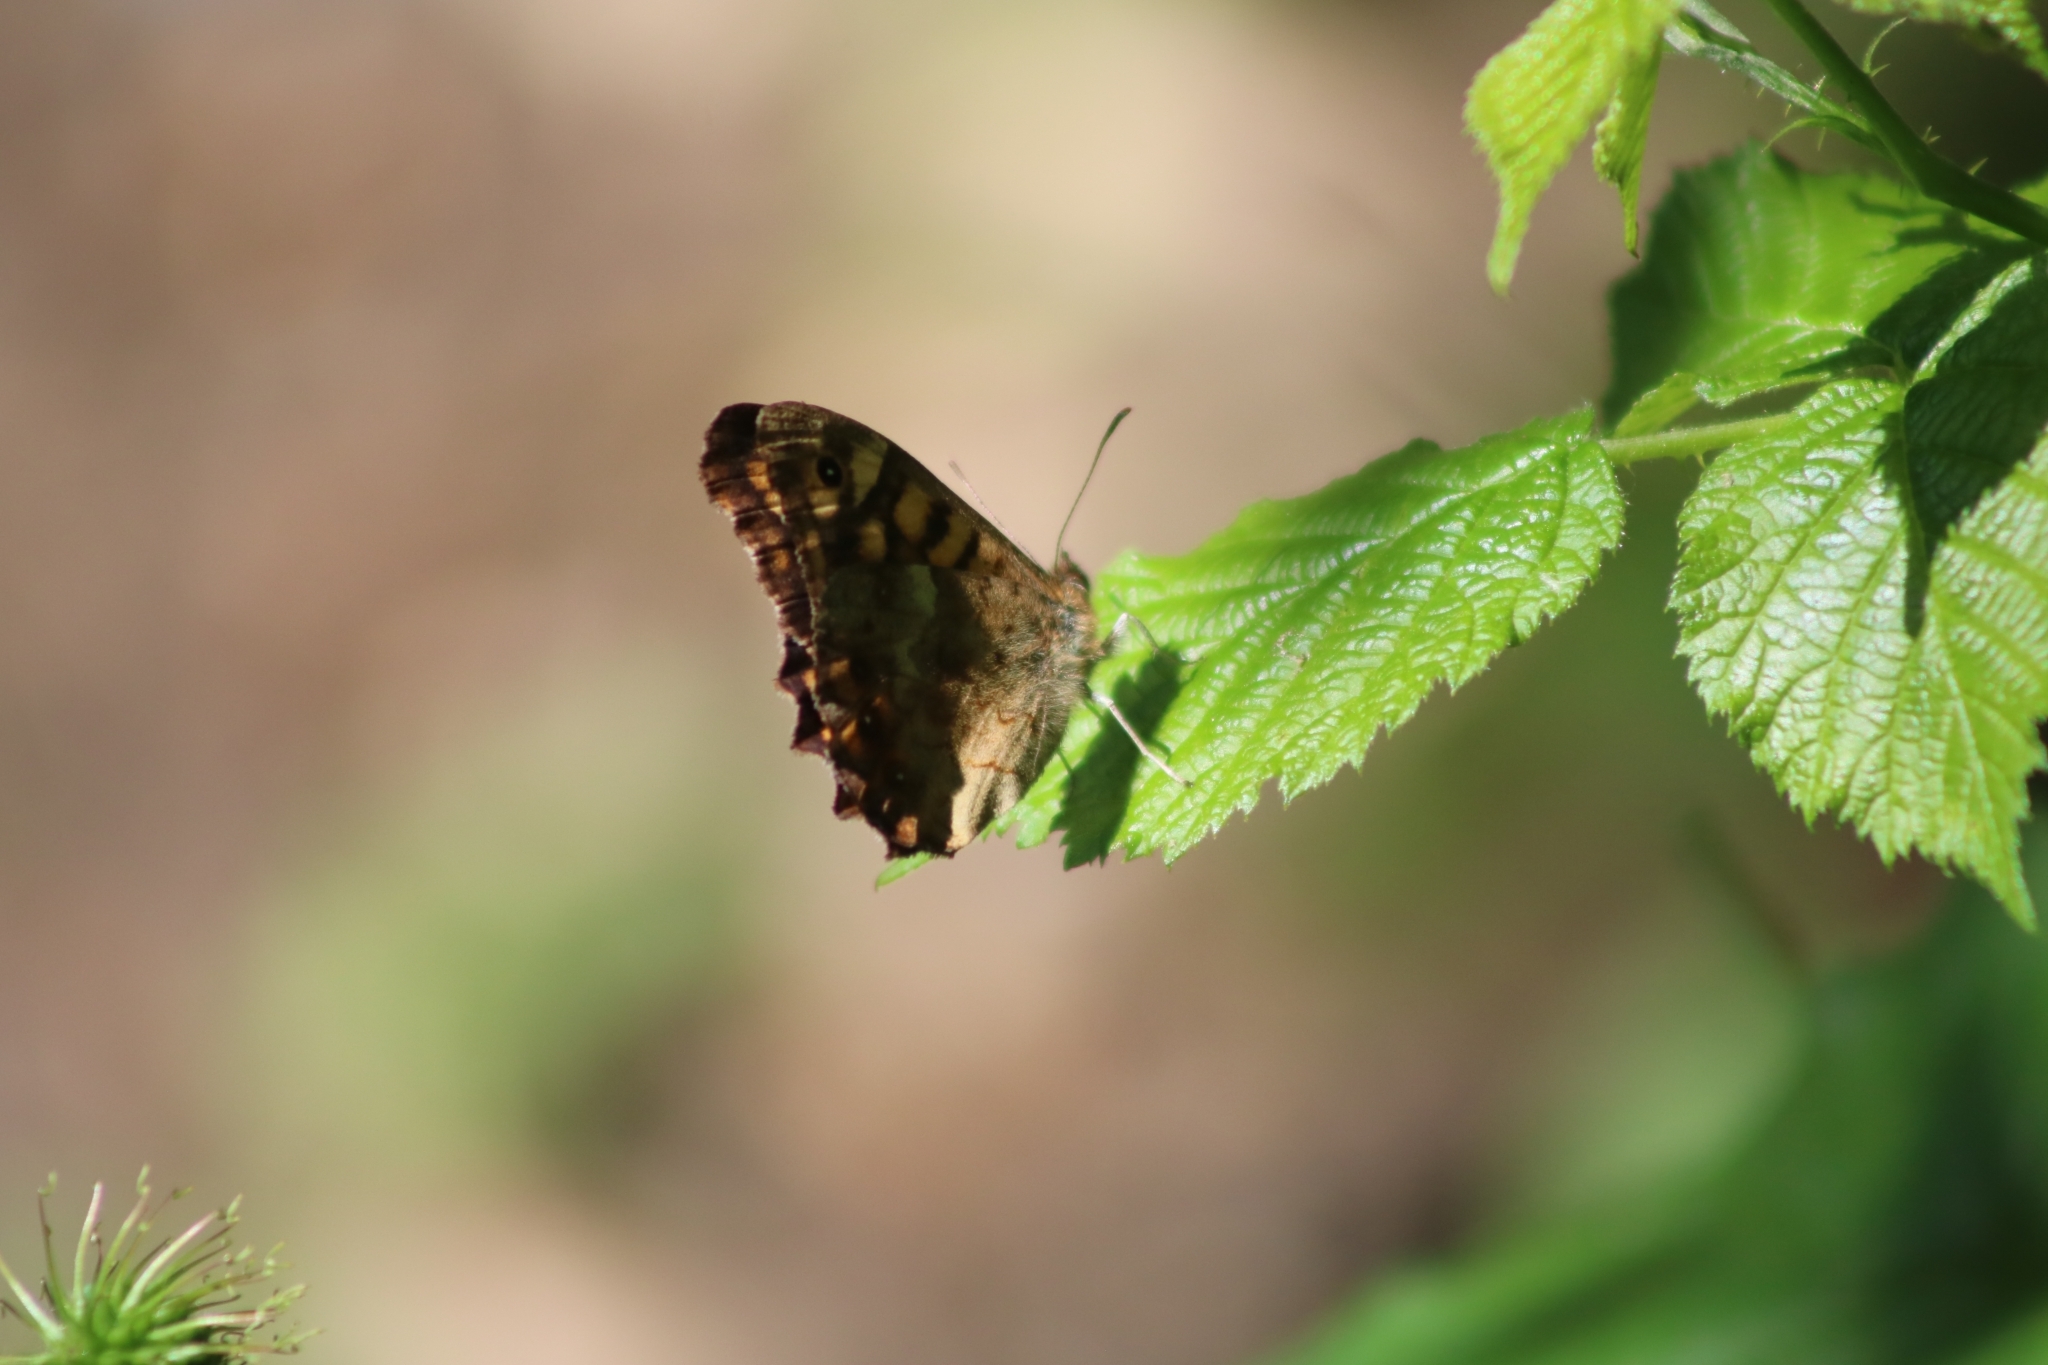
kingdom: Animalia
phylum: Arthropoda
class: Insecta
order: Lepidoptera
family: Nymphalidae
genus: Pararge
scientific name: Pararge aegeria
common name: Speckled wood
